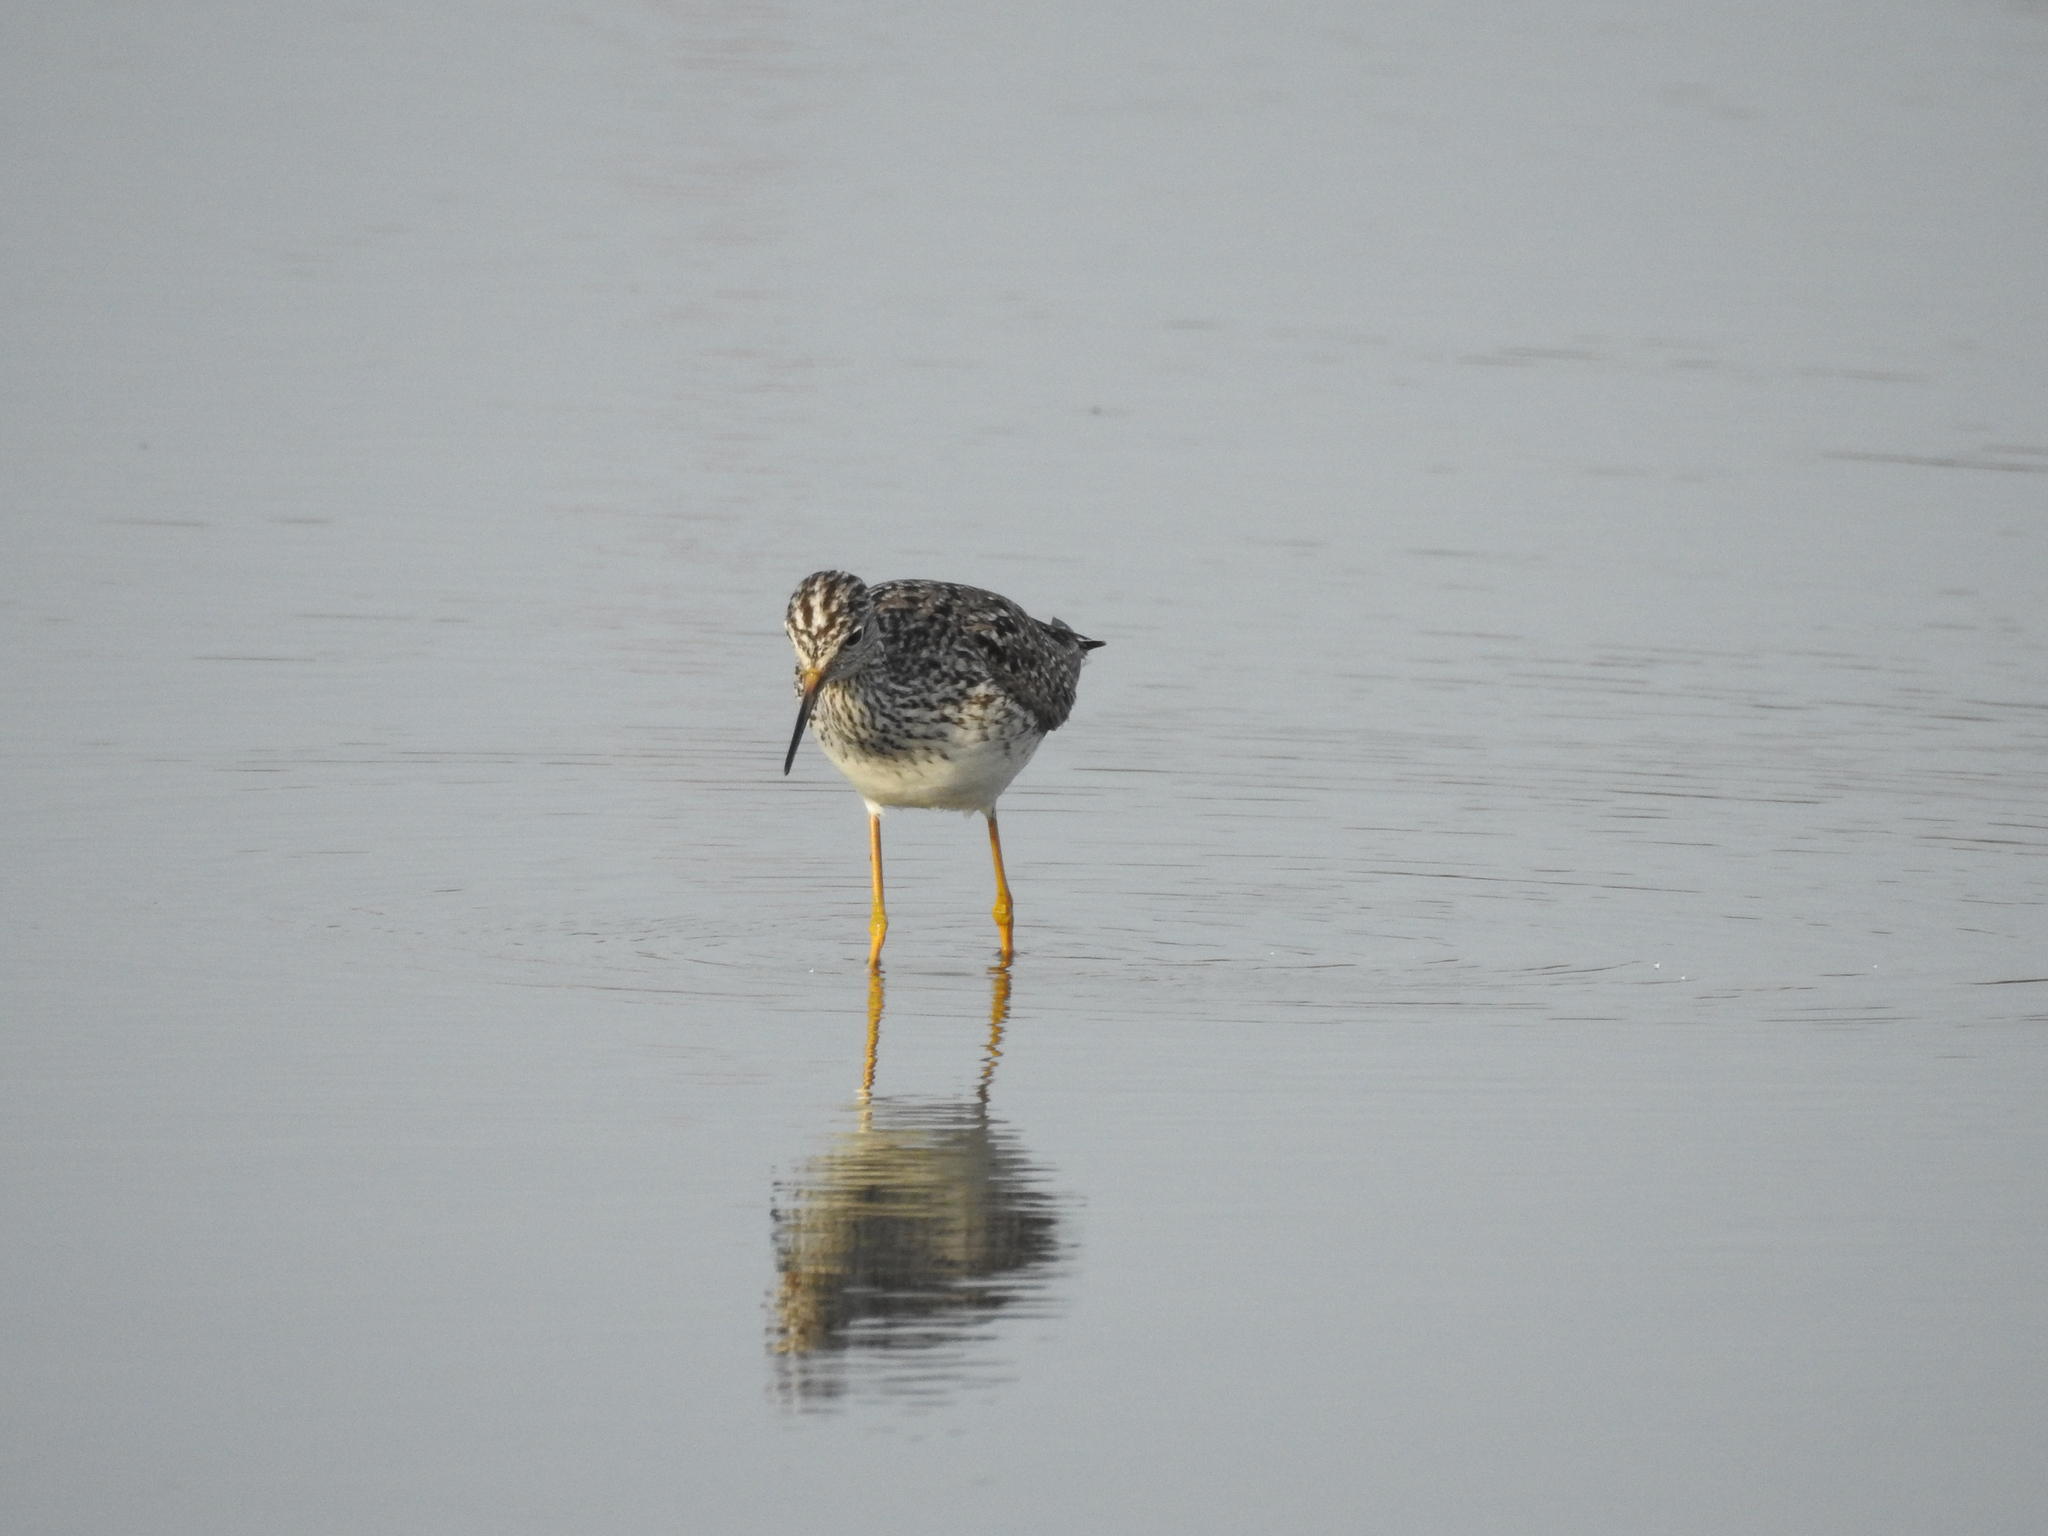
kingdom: Animalia
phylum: Chordata
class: Aves
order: Charadriiformes
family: Scolopacidae
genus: Tringa
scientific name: Tringa flavipes
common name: Lesser yellowlegs
